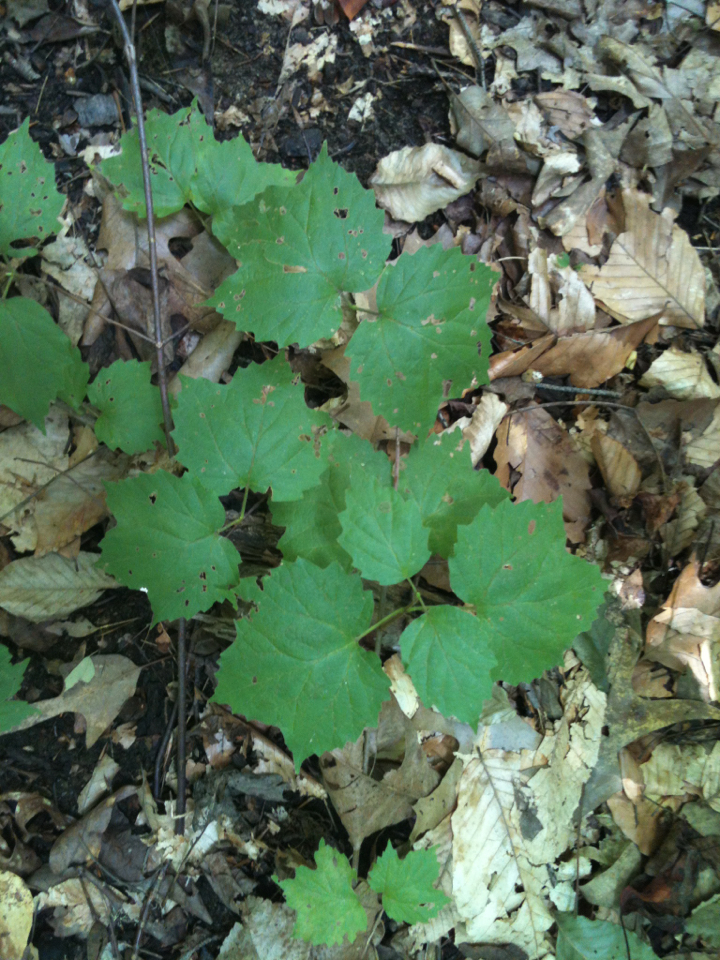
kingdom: Plantae
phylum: Tracheophyta
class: Magnoliopsida
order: Dipsacales
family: Viburnaceae
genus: Viburnum
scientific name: Viburnum acerifolium
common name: Dockmackie
